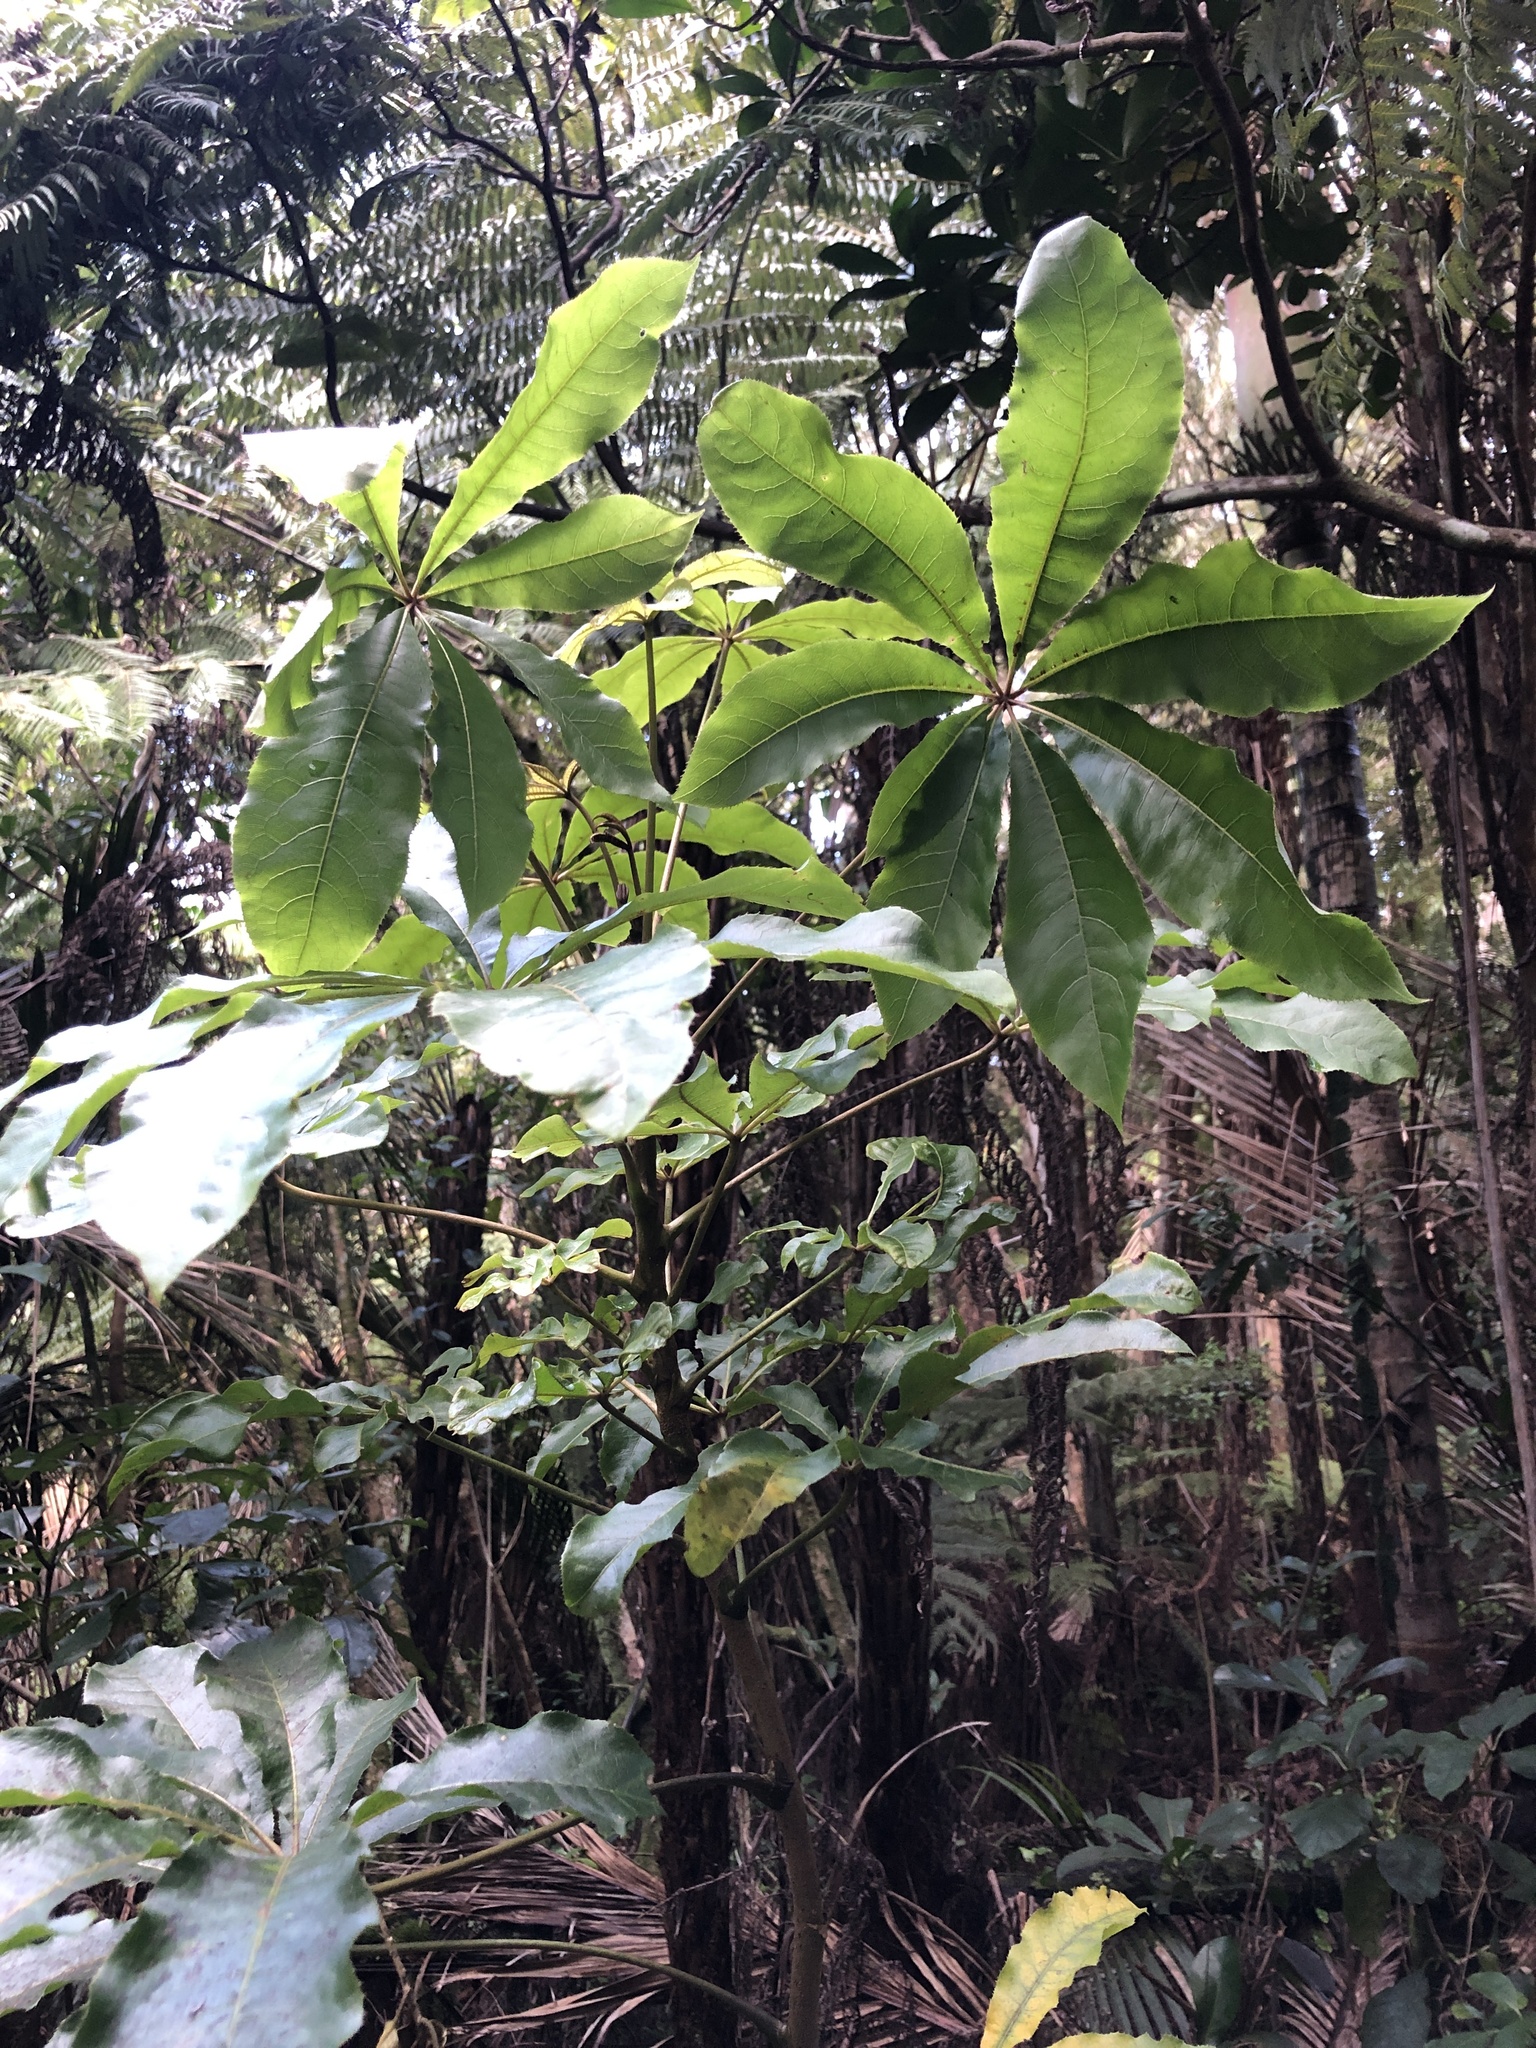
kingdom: Plantae
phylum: Tracheophyta
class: Magnoliopsida
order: Apiales
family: Araliaceae
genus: Schefflera
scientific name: Schefflera digitata
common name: Pate
